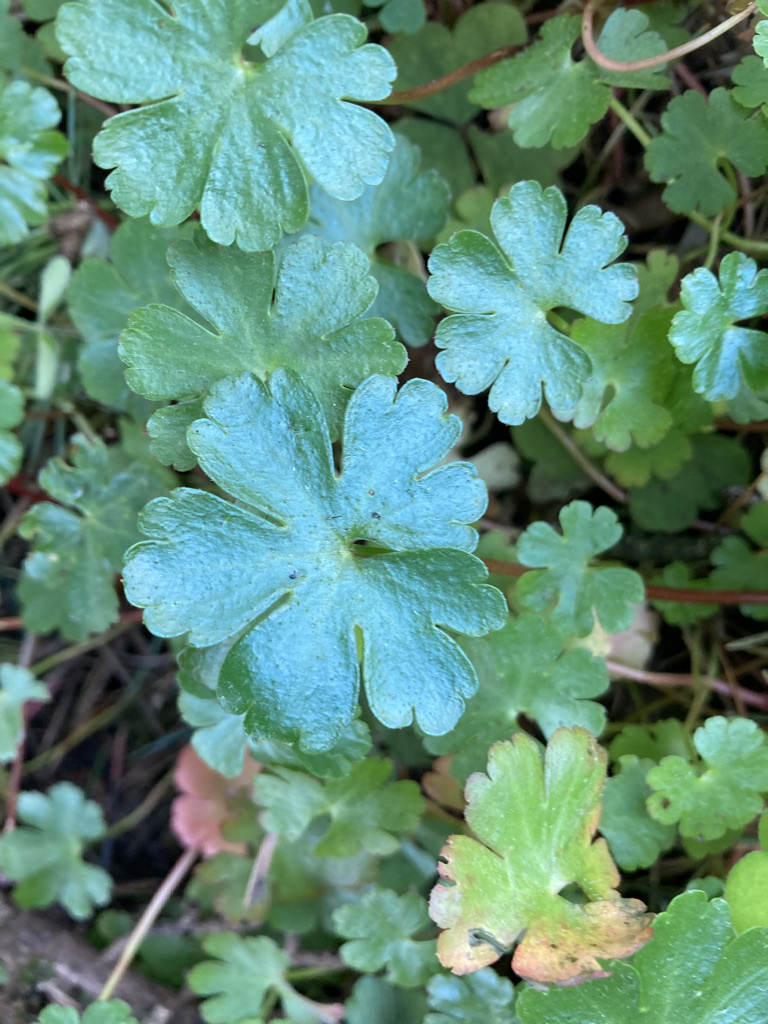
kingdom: Plantae
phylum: Tracheophyta
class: Magnoliopsida
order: Geraniales
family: Geraniaceae
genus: Geranium
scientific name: Geranium lucidum
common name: Shining crane's-bill
